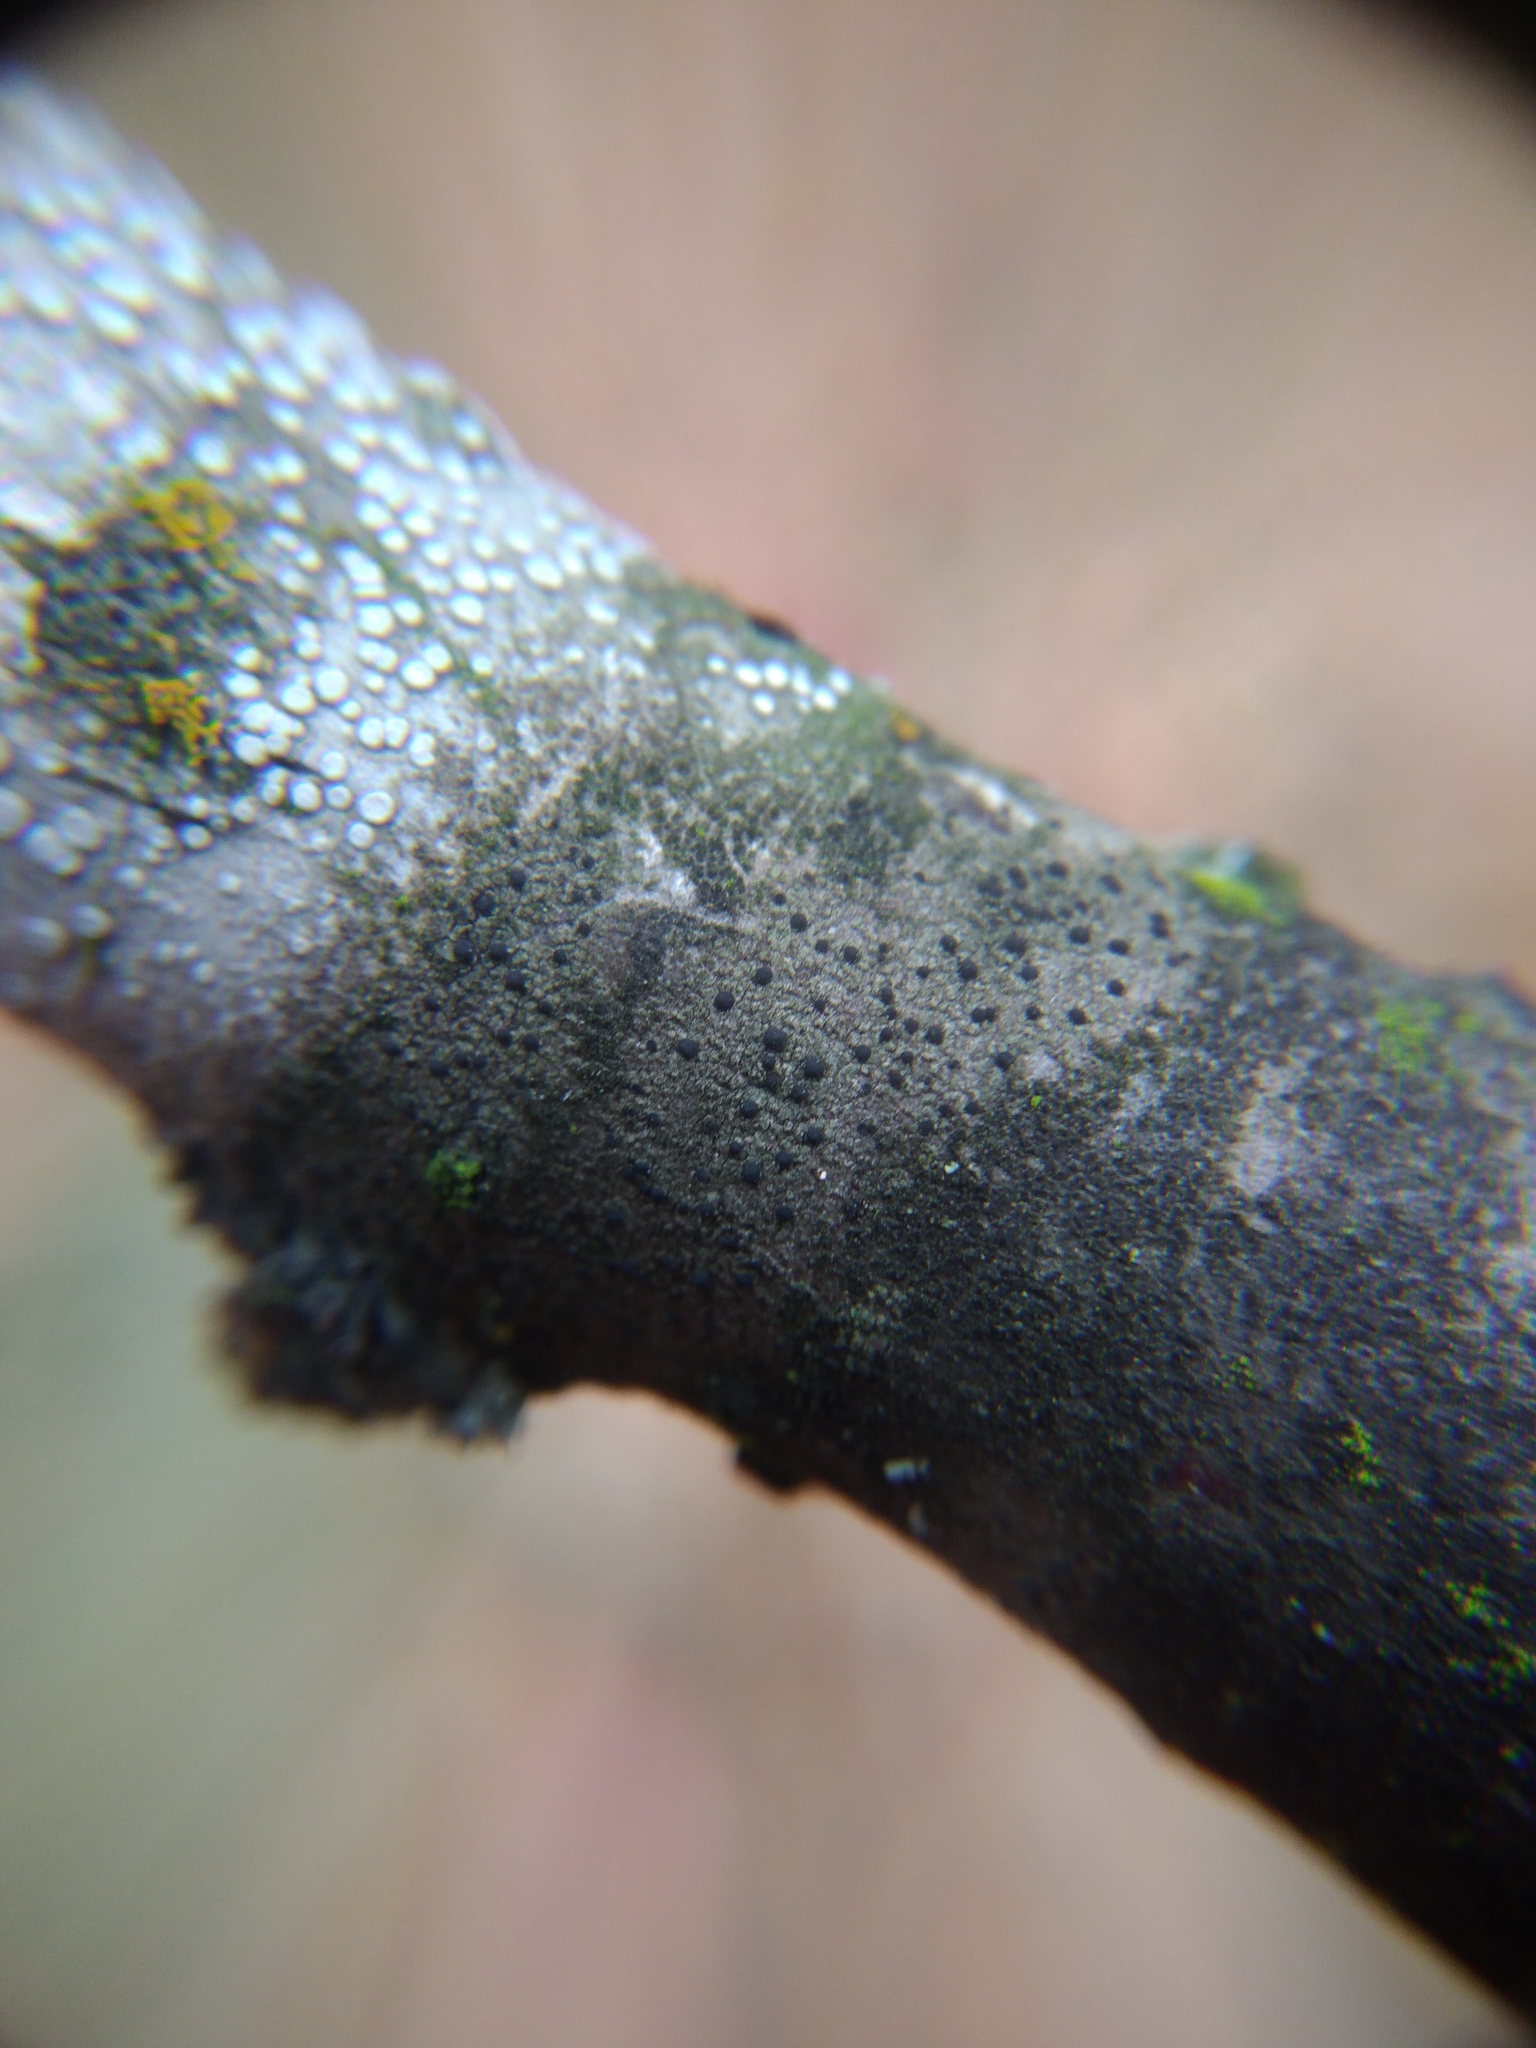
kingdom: Fungi
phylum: Ascomycota
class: Lecanoromycetes
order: Caliciales
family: Caliciaceae
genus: Amandinea
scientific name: Amandinea punctata
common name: Tiny button lichen
